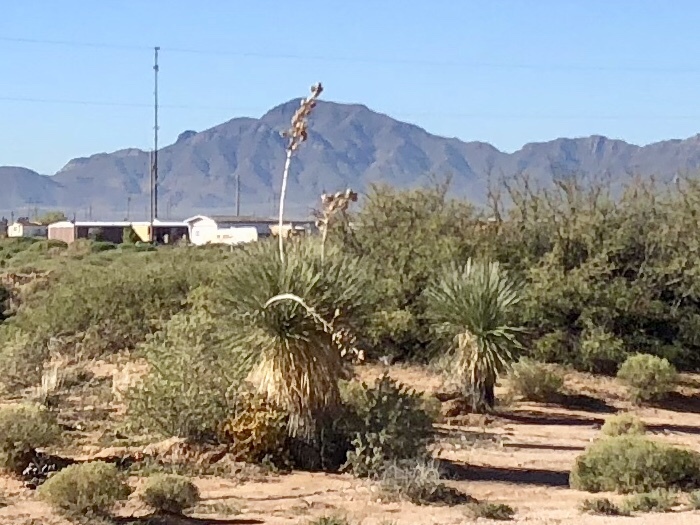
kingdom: Plantae
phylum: Tracheophyta
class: Liliopsida
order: Asparagales
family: Asparagaceae
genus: Yucca
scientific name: Yucca elata
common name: Palmella
